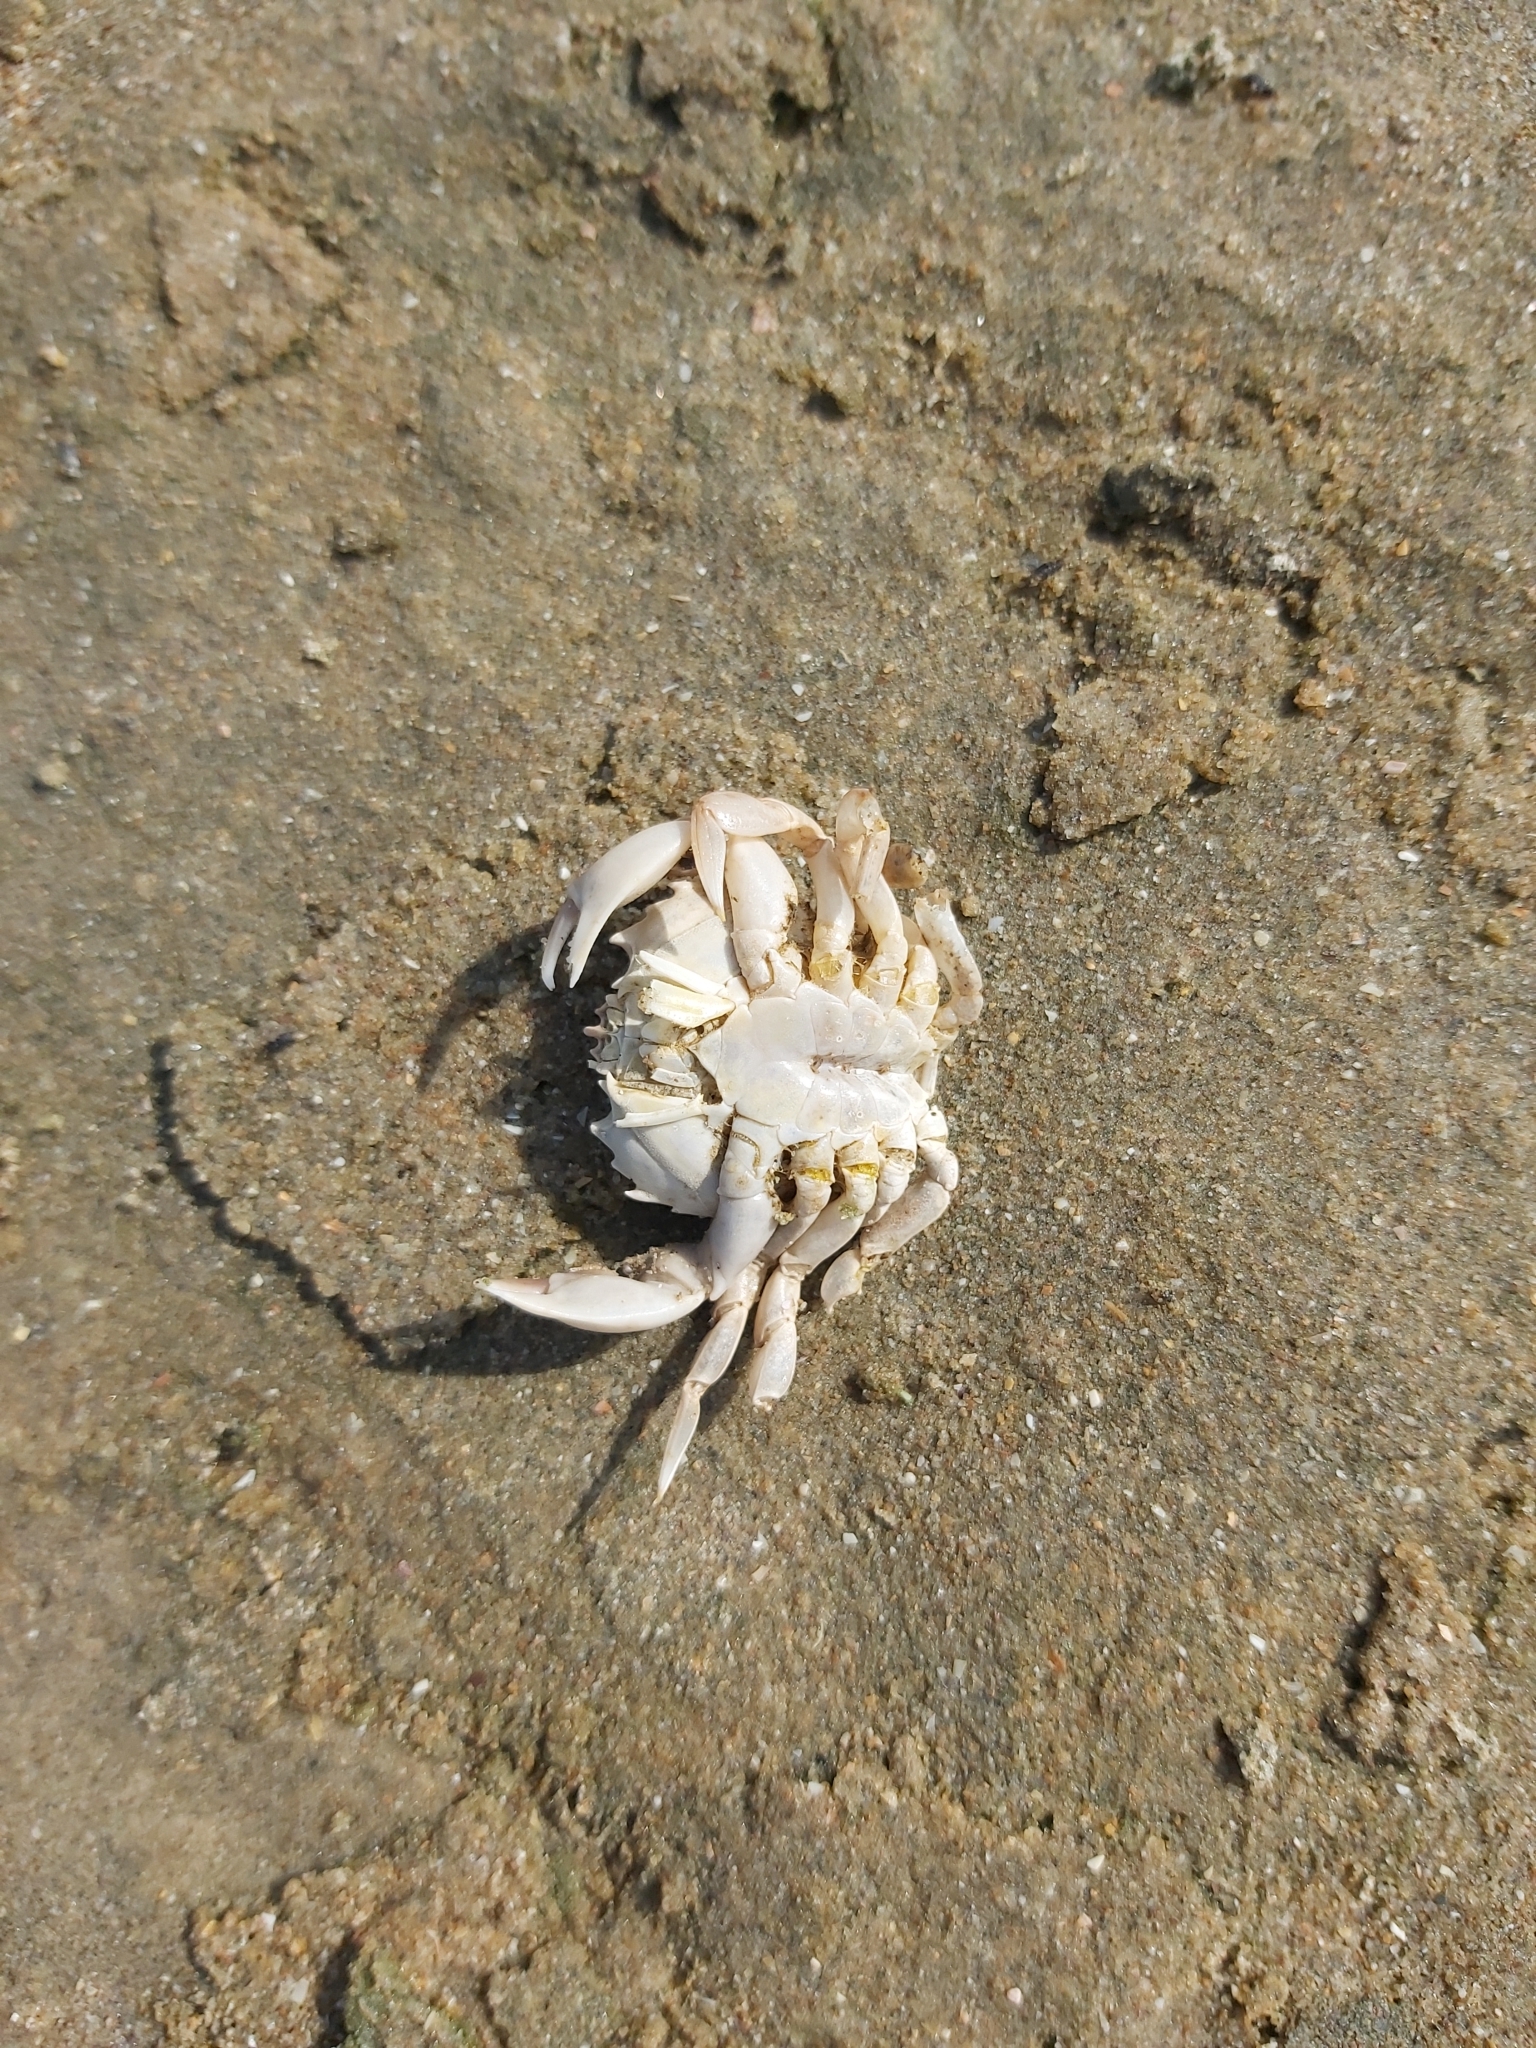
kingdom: Animalia
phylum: Arthropoda
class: Malacostraca
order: Decapoda
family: Carcinidae
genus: Portumnus
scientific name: Portumnus latipes
